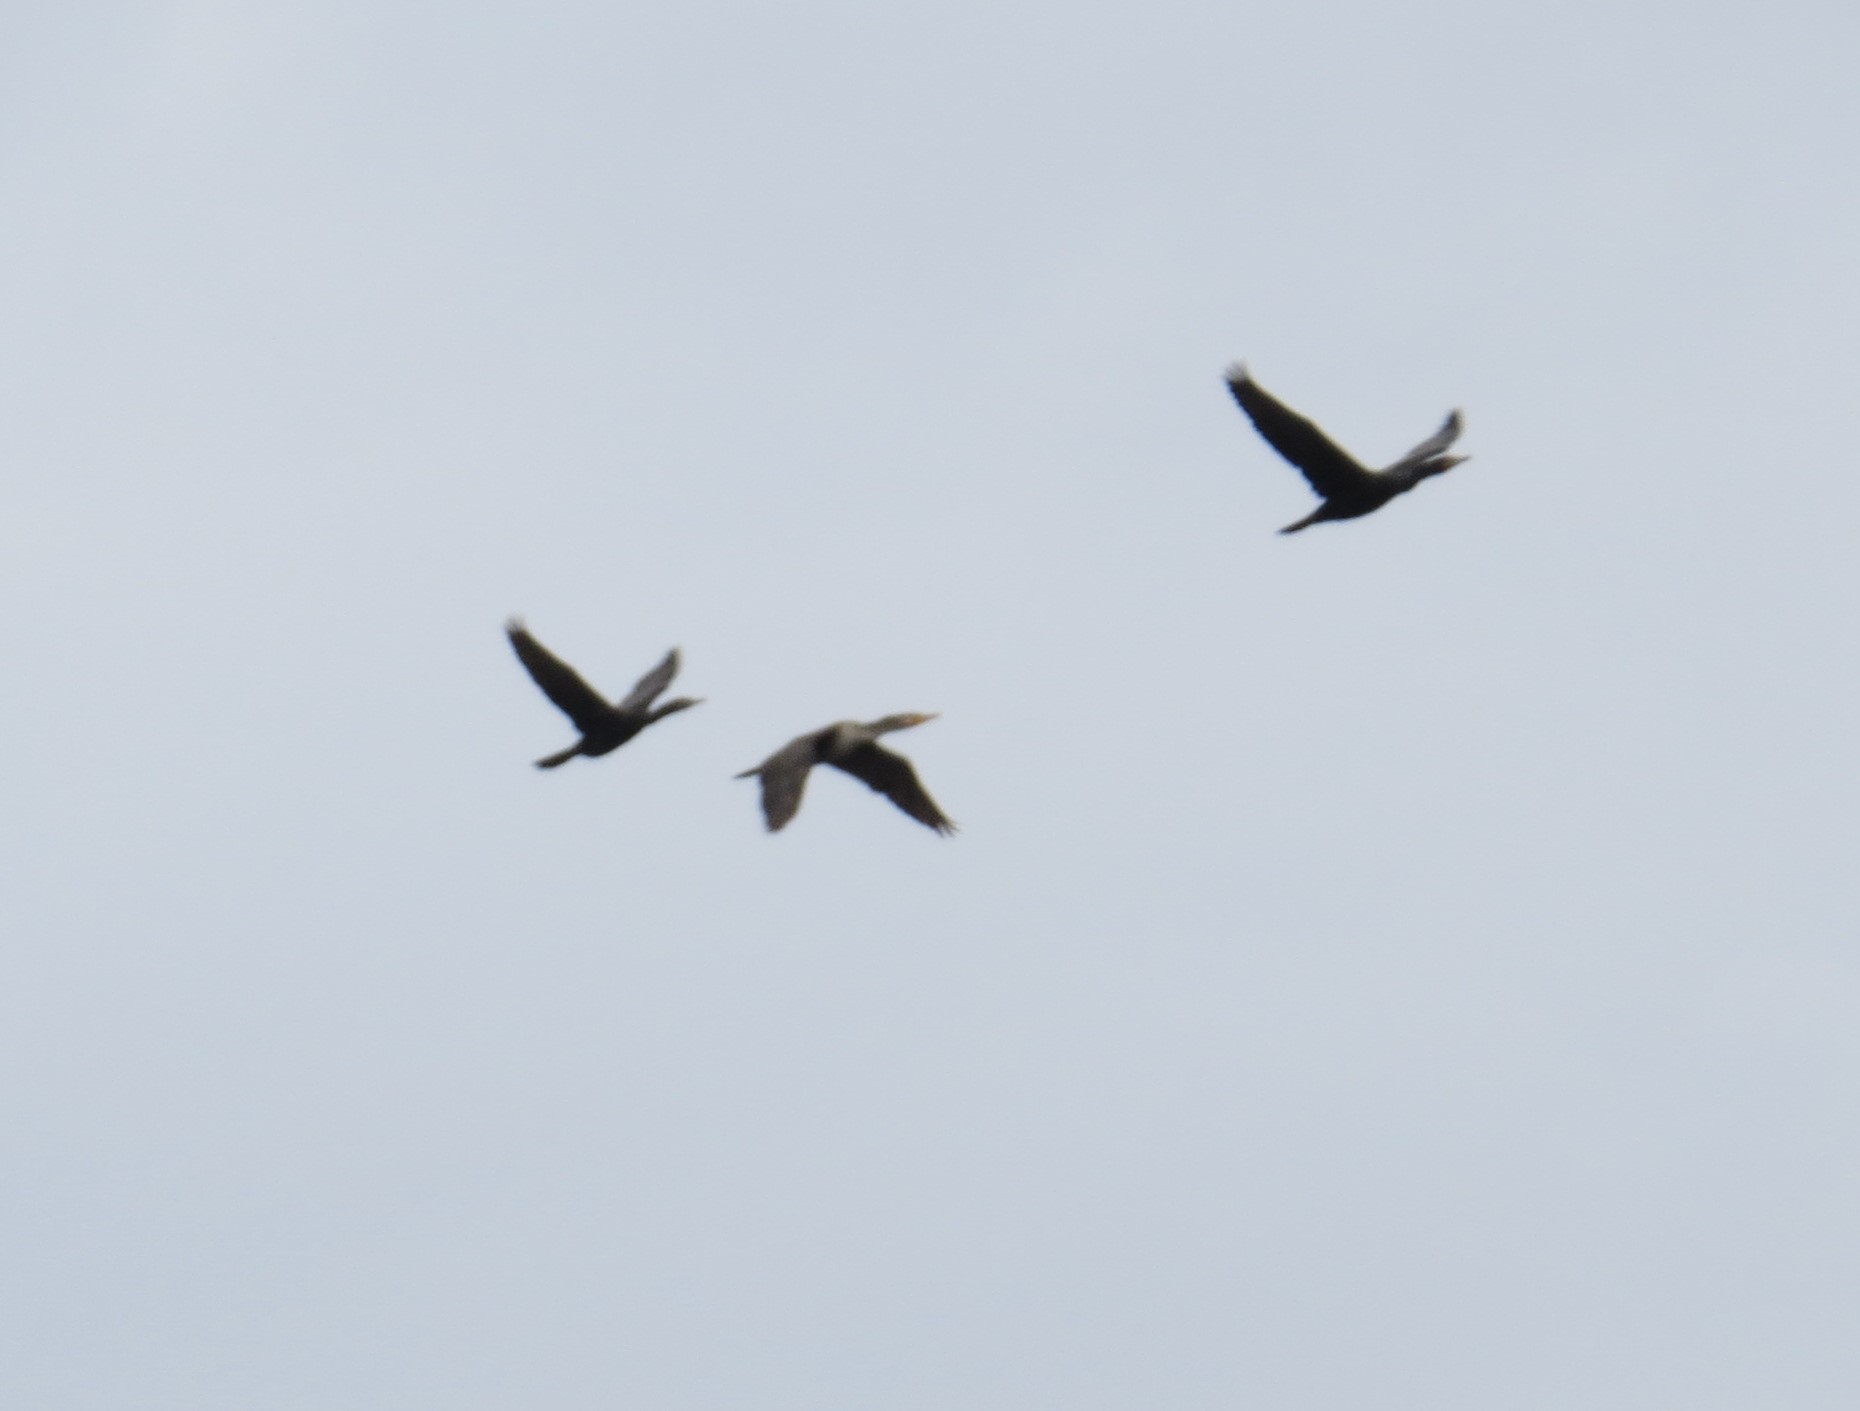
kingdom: Animalia
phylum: Chordata
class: Aves
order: Suliformes
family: Phalacrocoracidae
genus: Phalacrocorax
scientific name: Phalacrocorax auritus
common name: Double-crested cormorant
